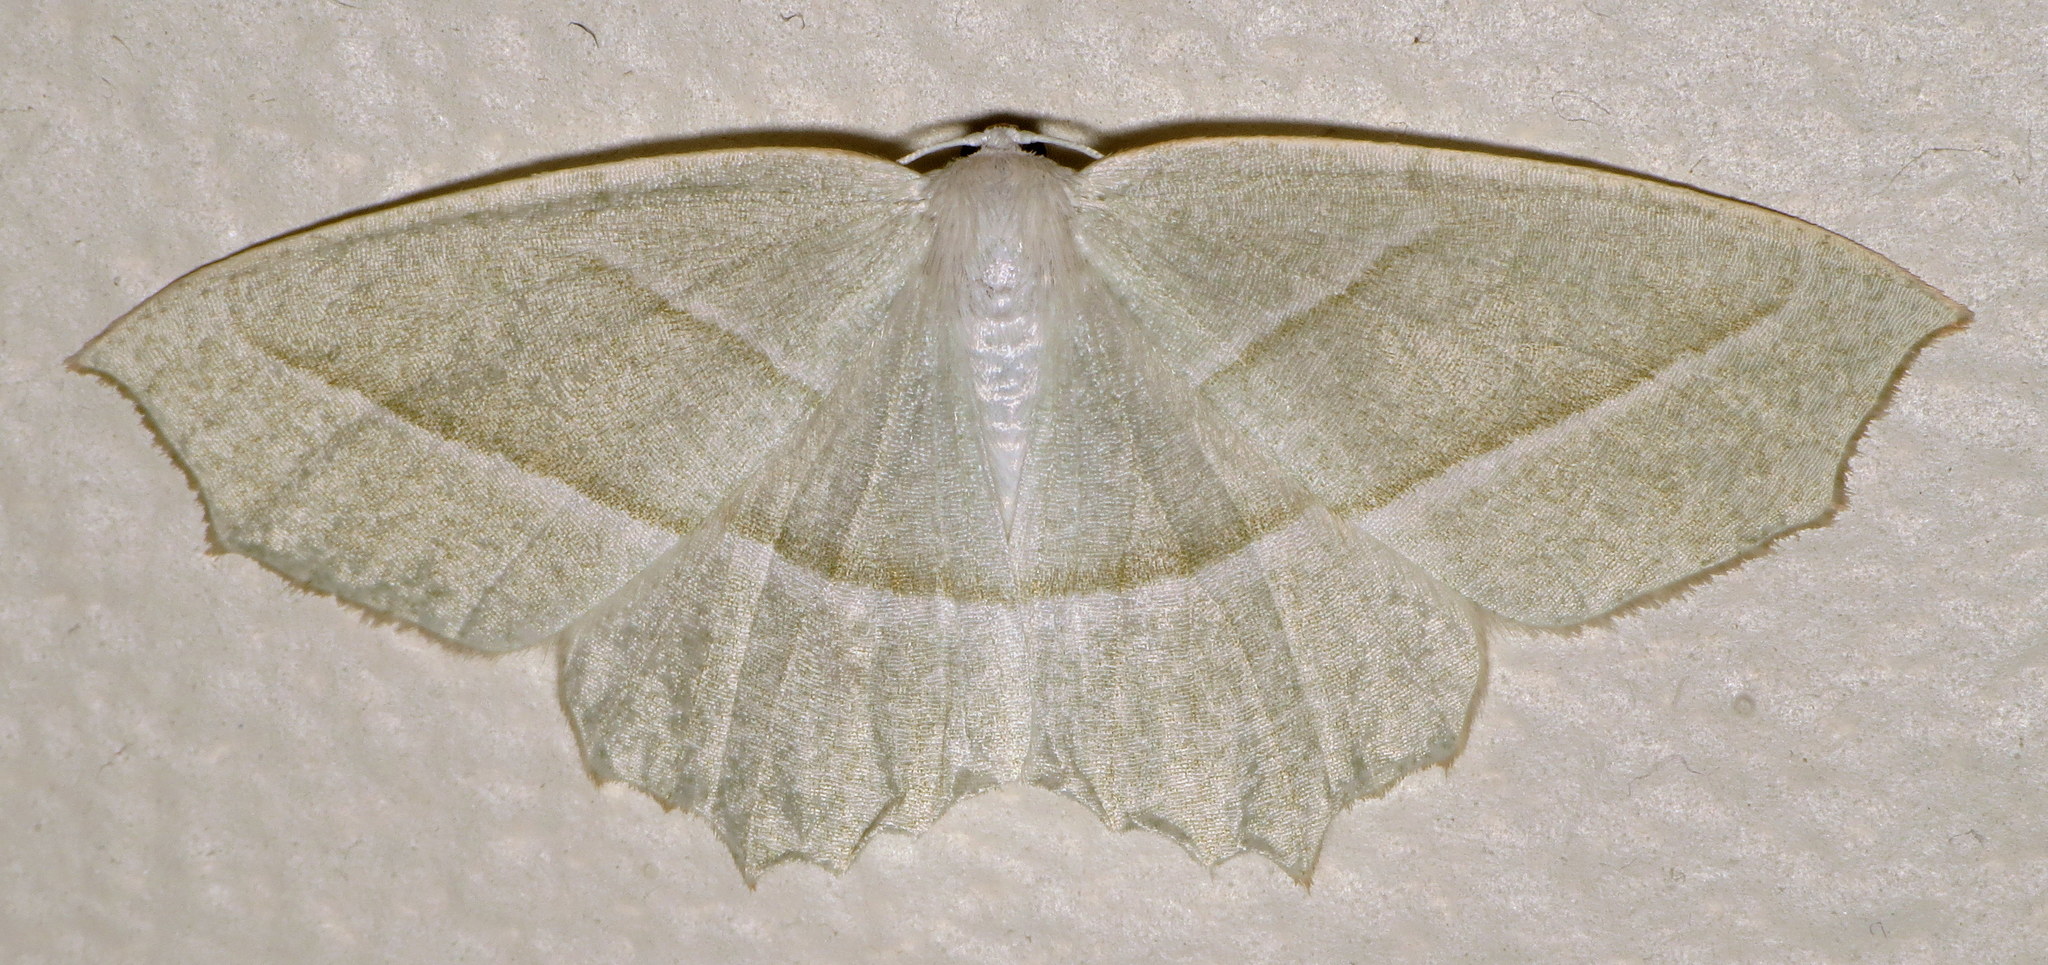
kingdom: Animalia
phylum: Arthropoda
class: Insecta
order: Lepidoptera
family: Geometridae
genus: Campaea
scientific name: Campaea perlata
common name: Fringed looper
